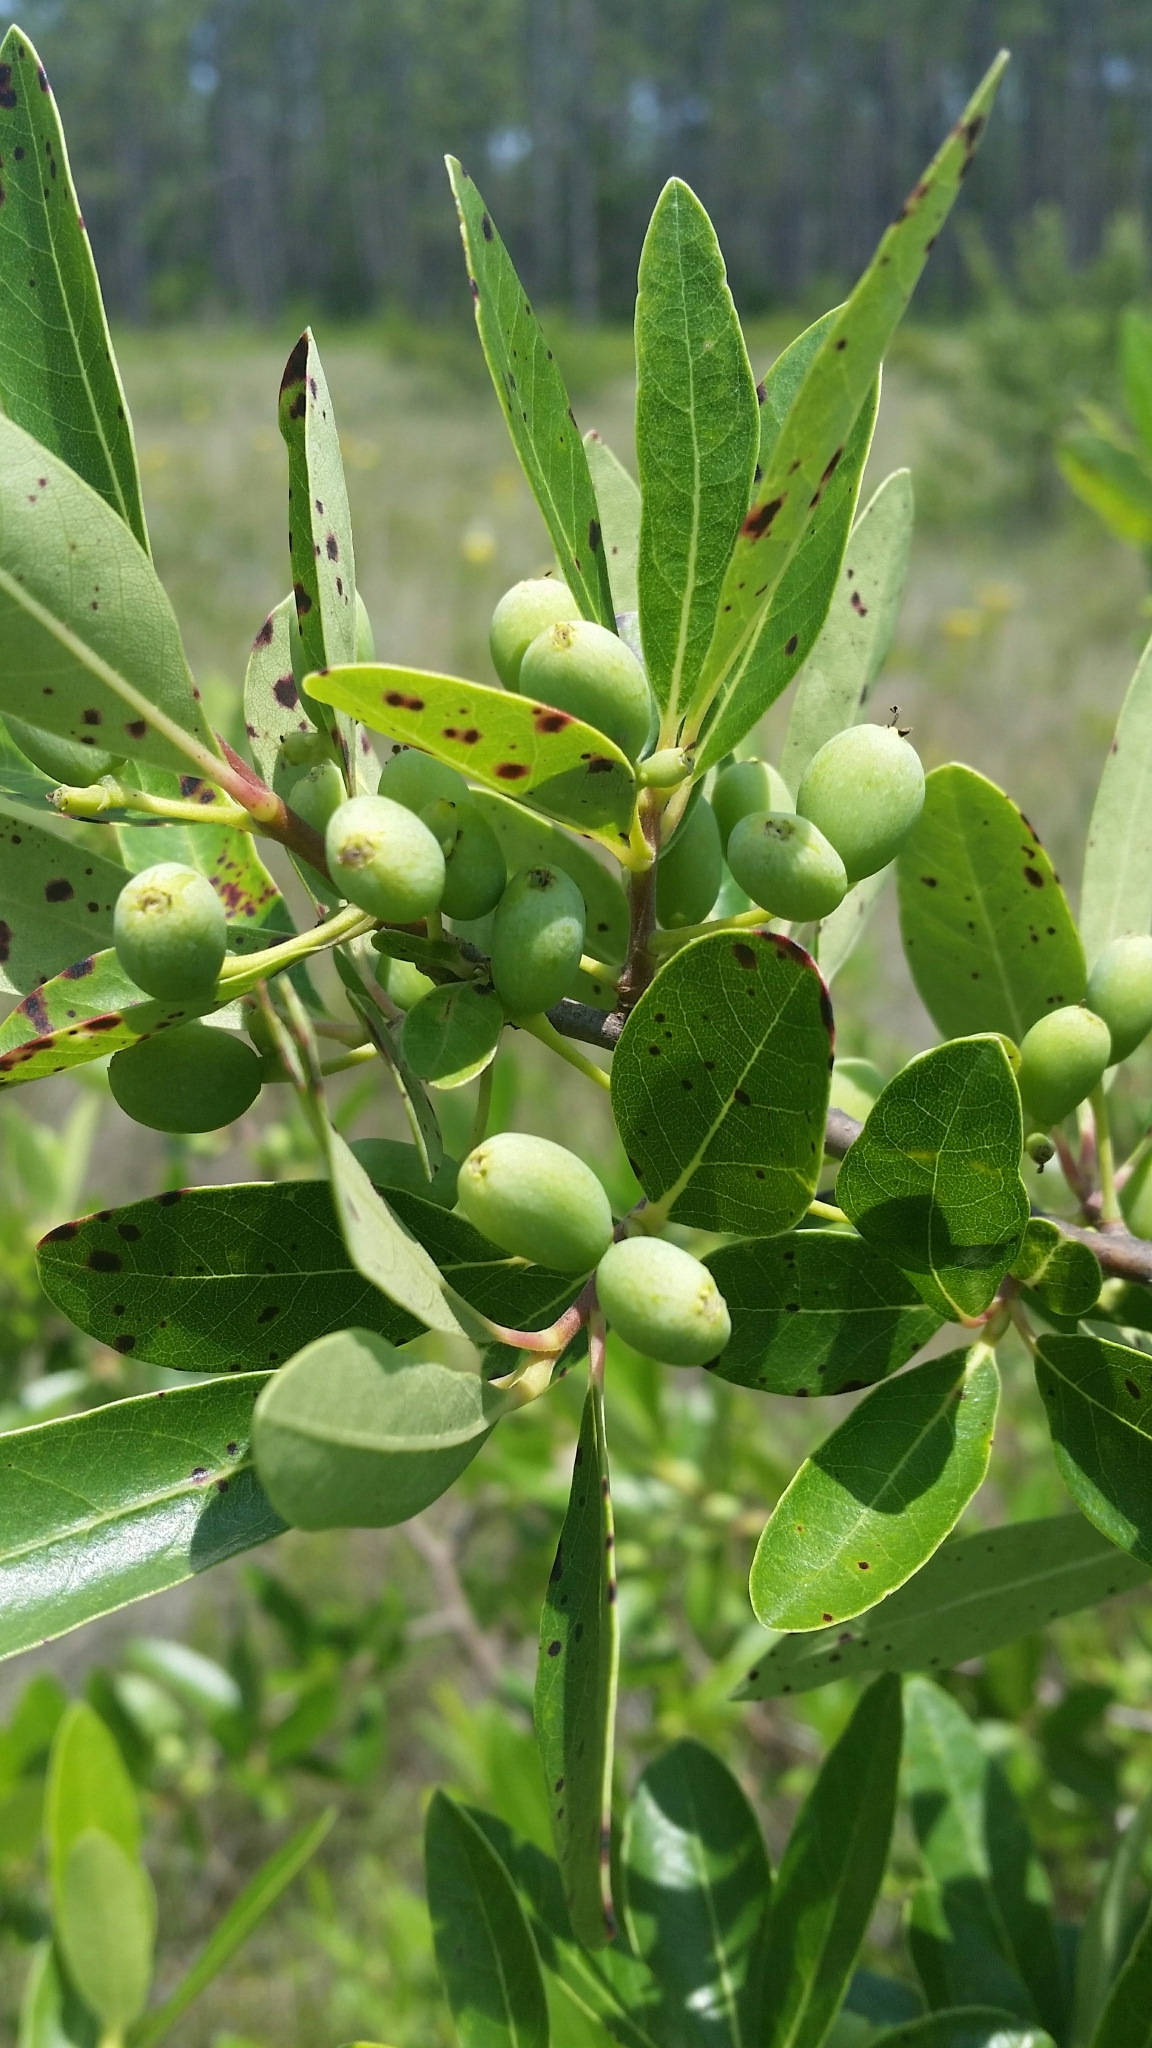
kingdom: Plantae
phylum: Tracheophyta
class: Magnoliopsida
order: Cornales
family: Nyssaceae
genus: Nyssa
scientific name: Nyssa biflora
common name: Swamp blackgum
